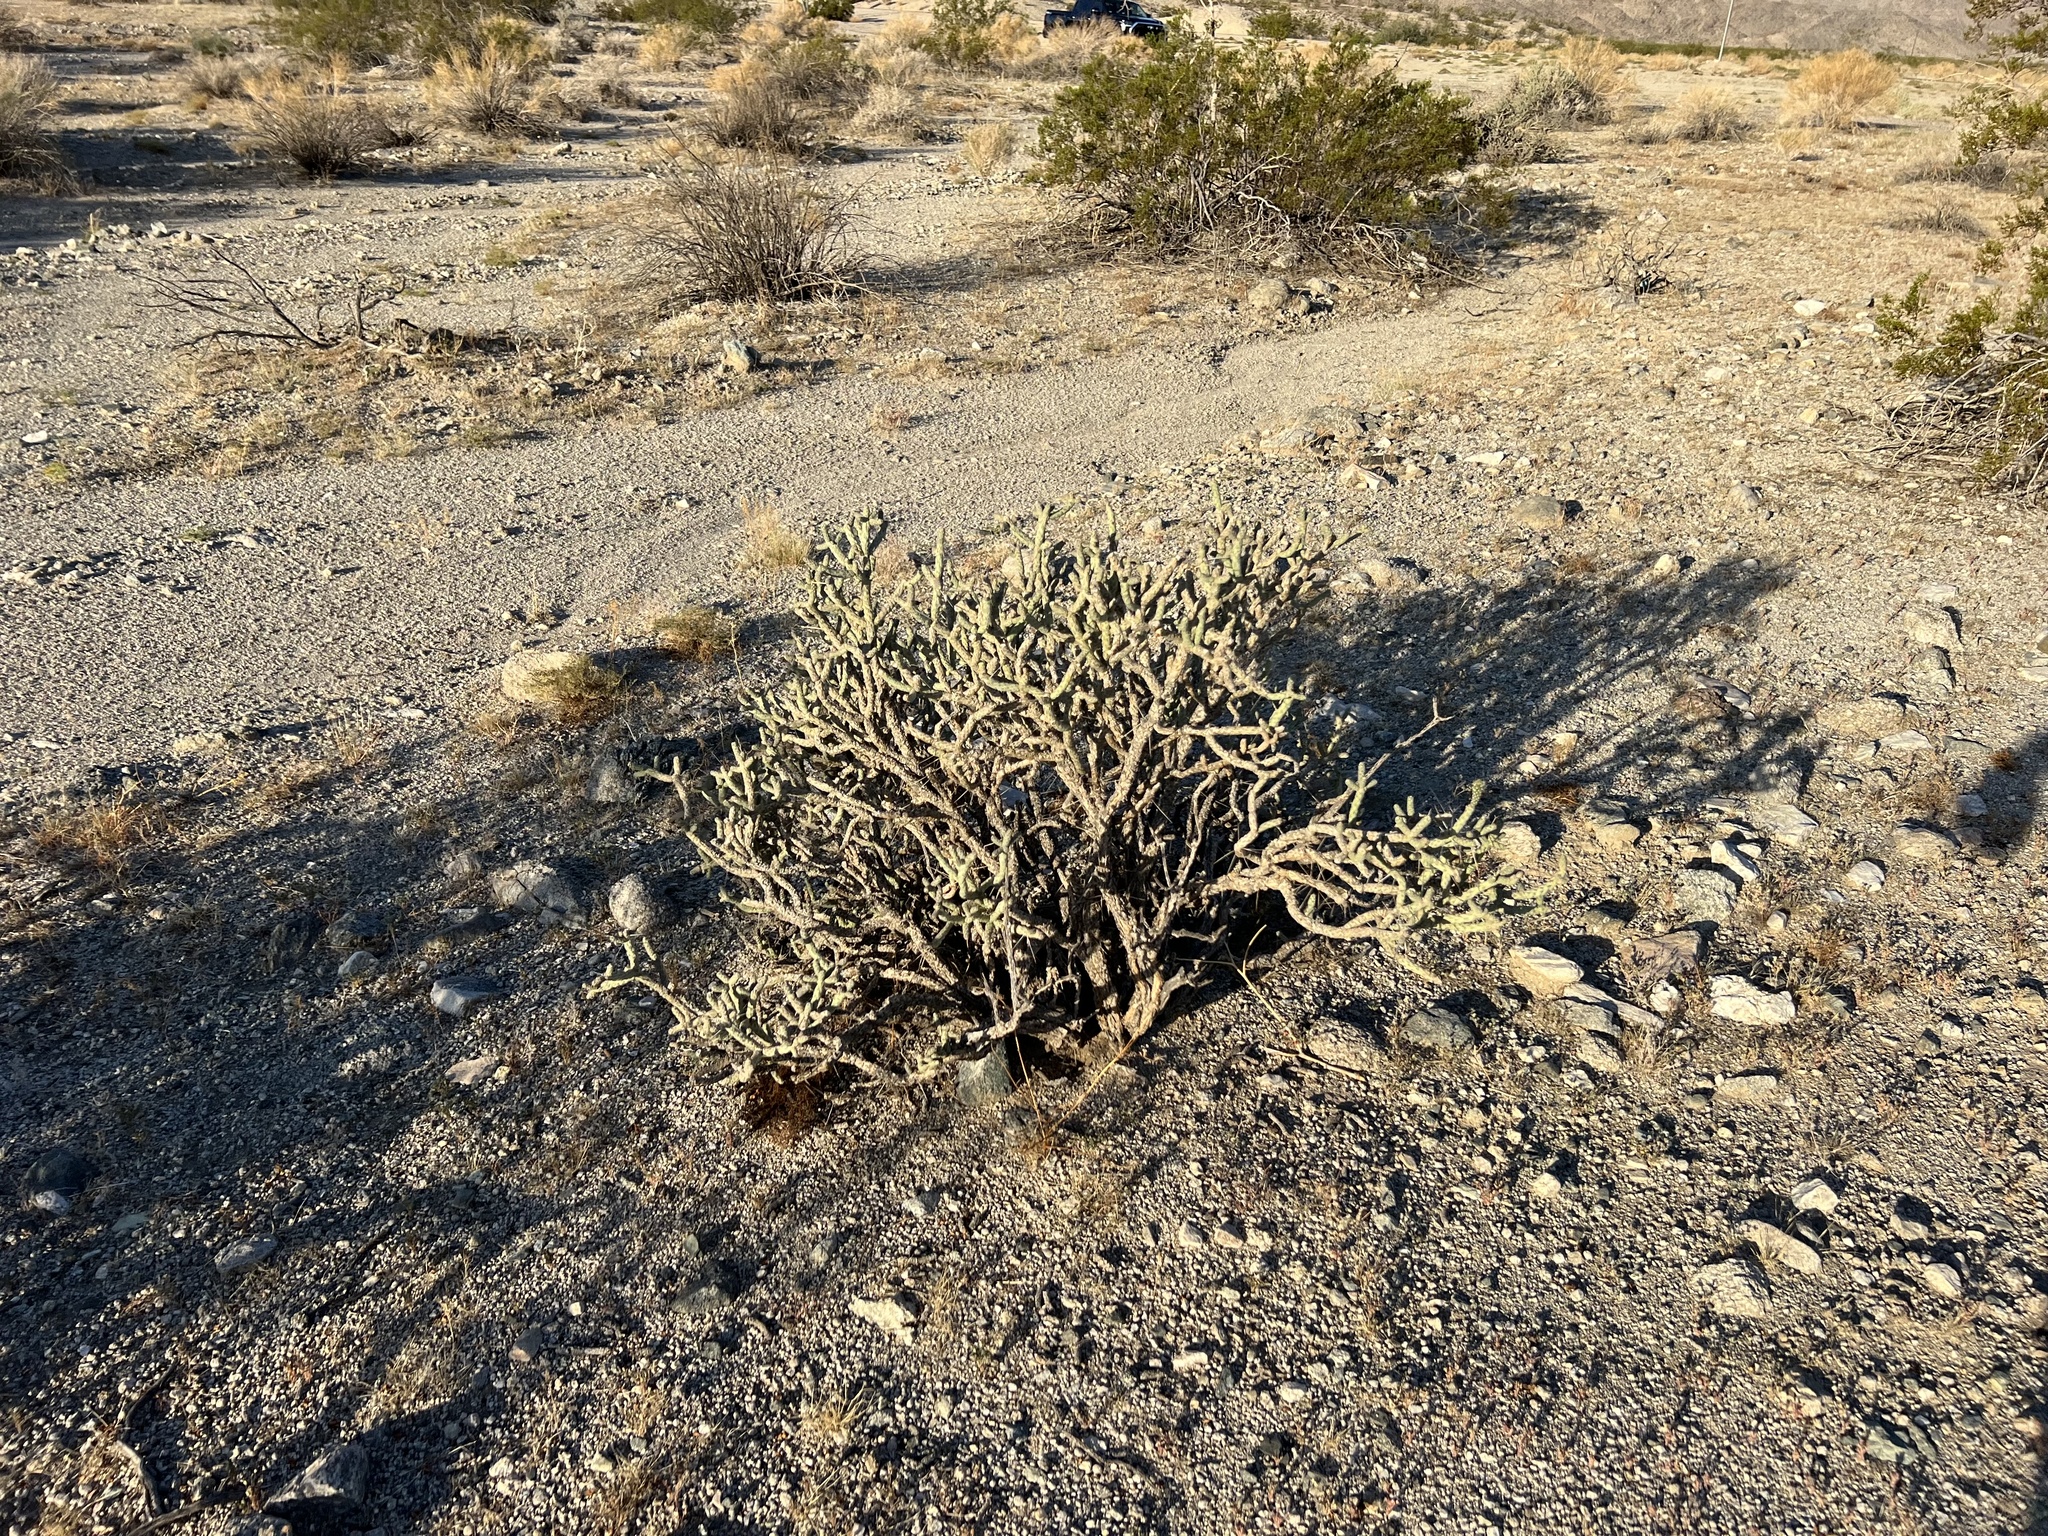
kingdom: Plantae
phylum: Tracheophyta
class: Magnoliopsida
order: Caryophyllales
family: Cactaceae
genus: Cylindropuntia
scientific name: Cylindropuntia ramosissima
